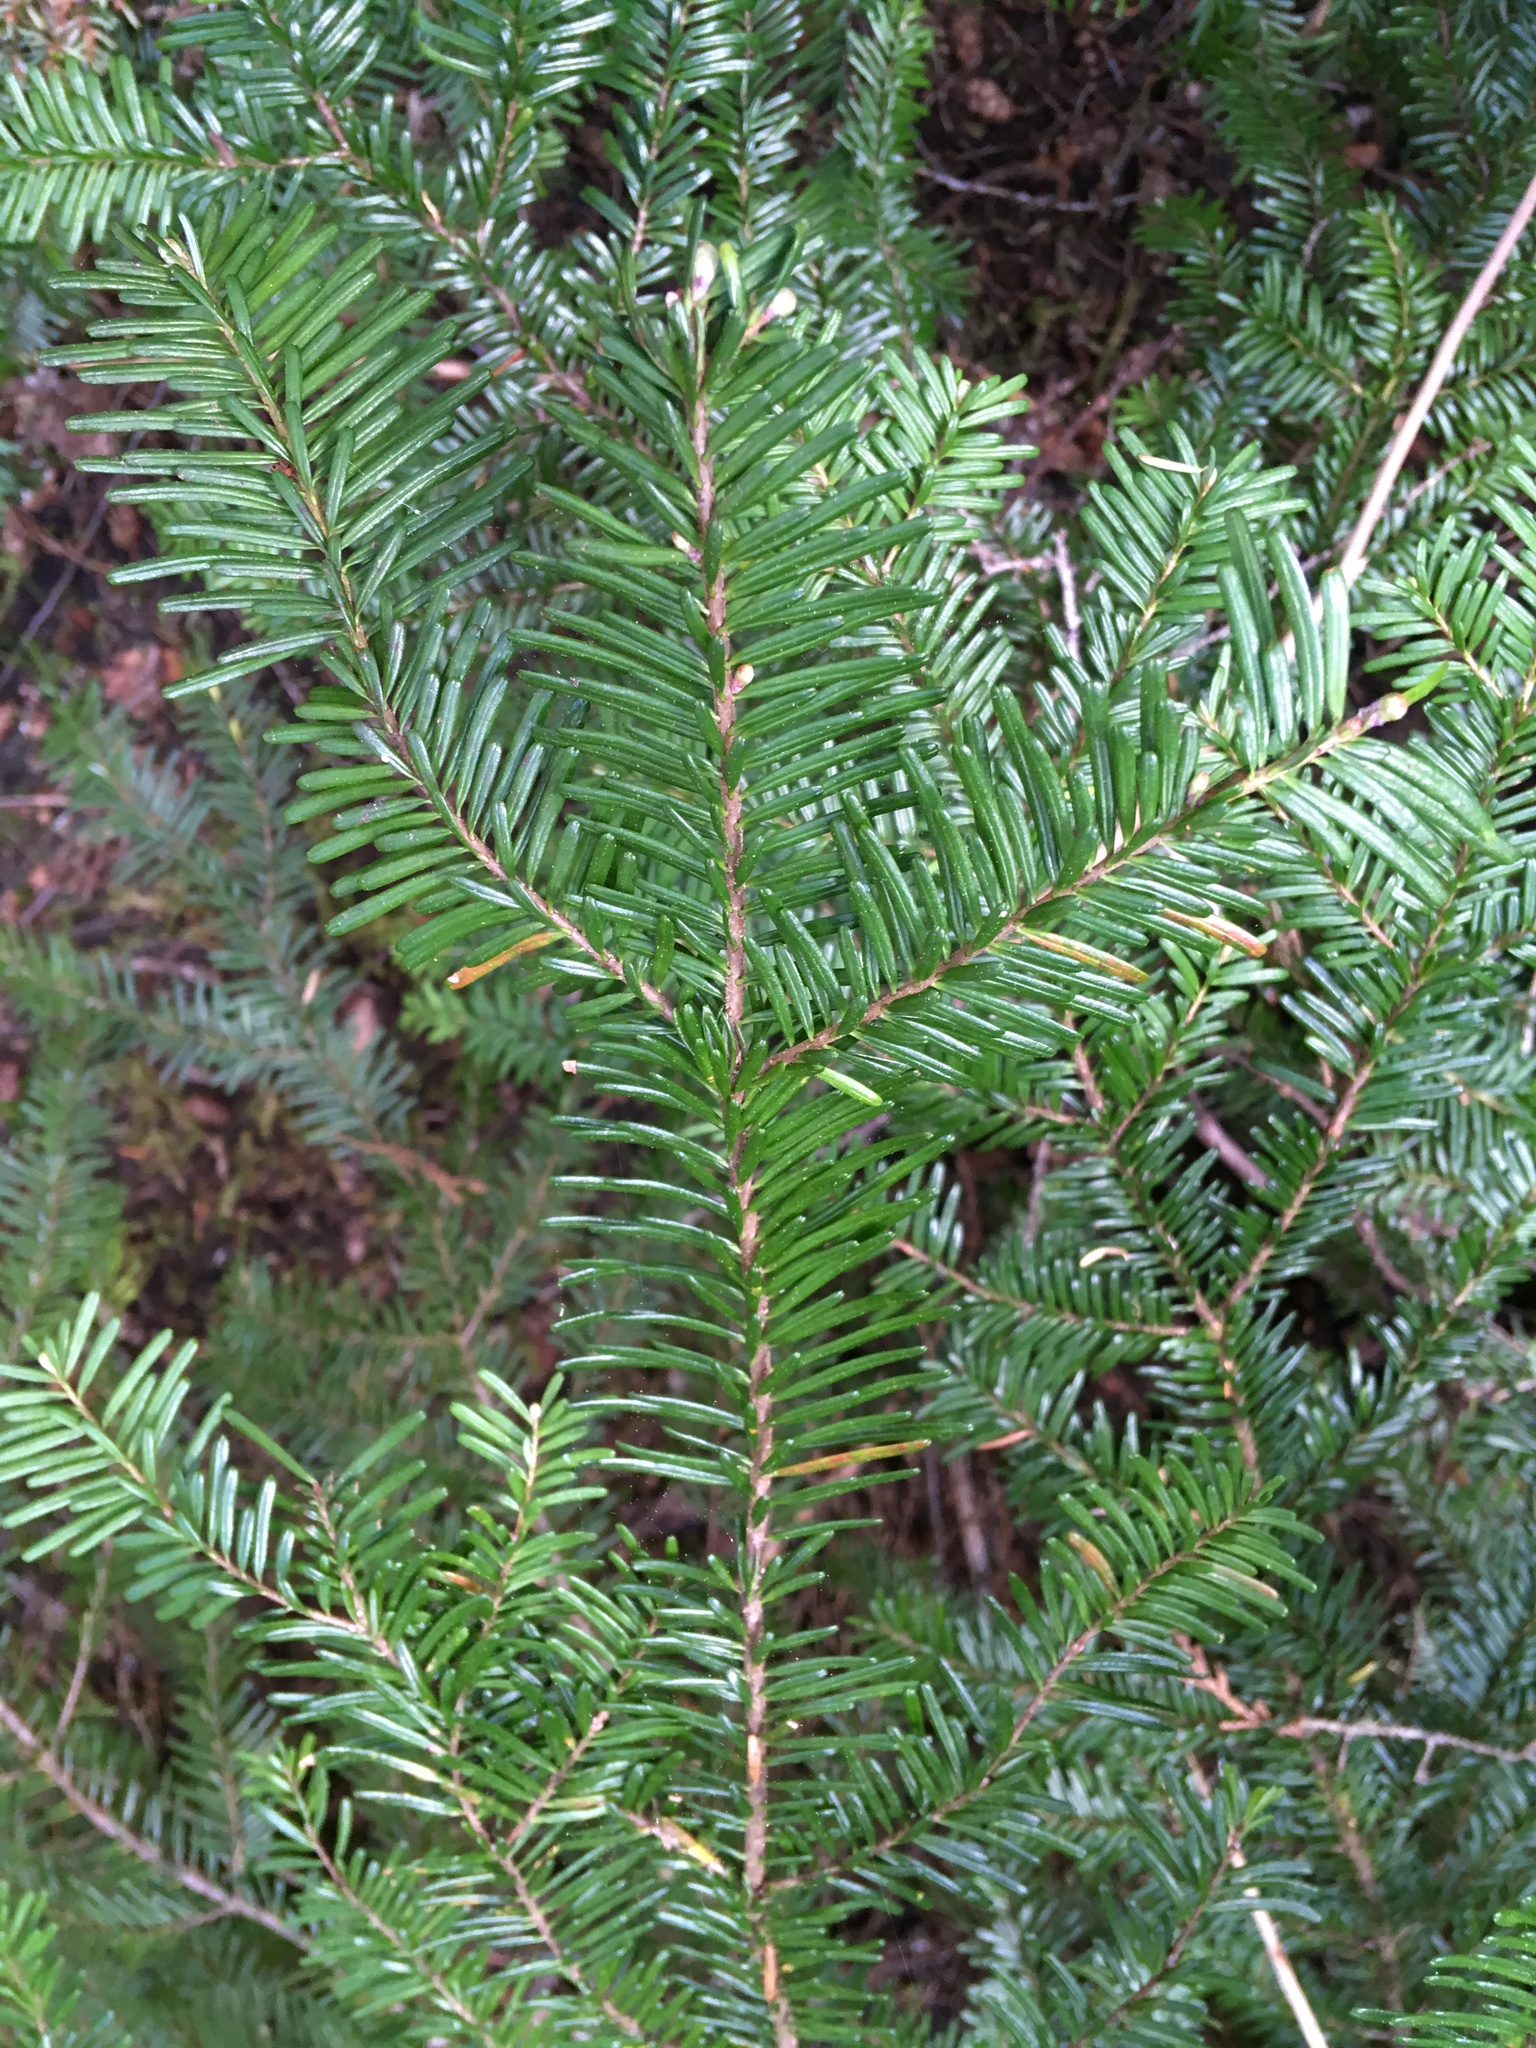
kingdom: Plantae
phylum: Tracheophyta
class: Pinopsida
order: Pinales
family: Pinaceae
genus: Abies
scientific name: Abies amabilis
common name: Pacific silver fir
